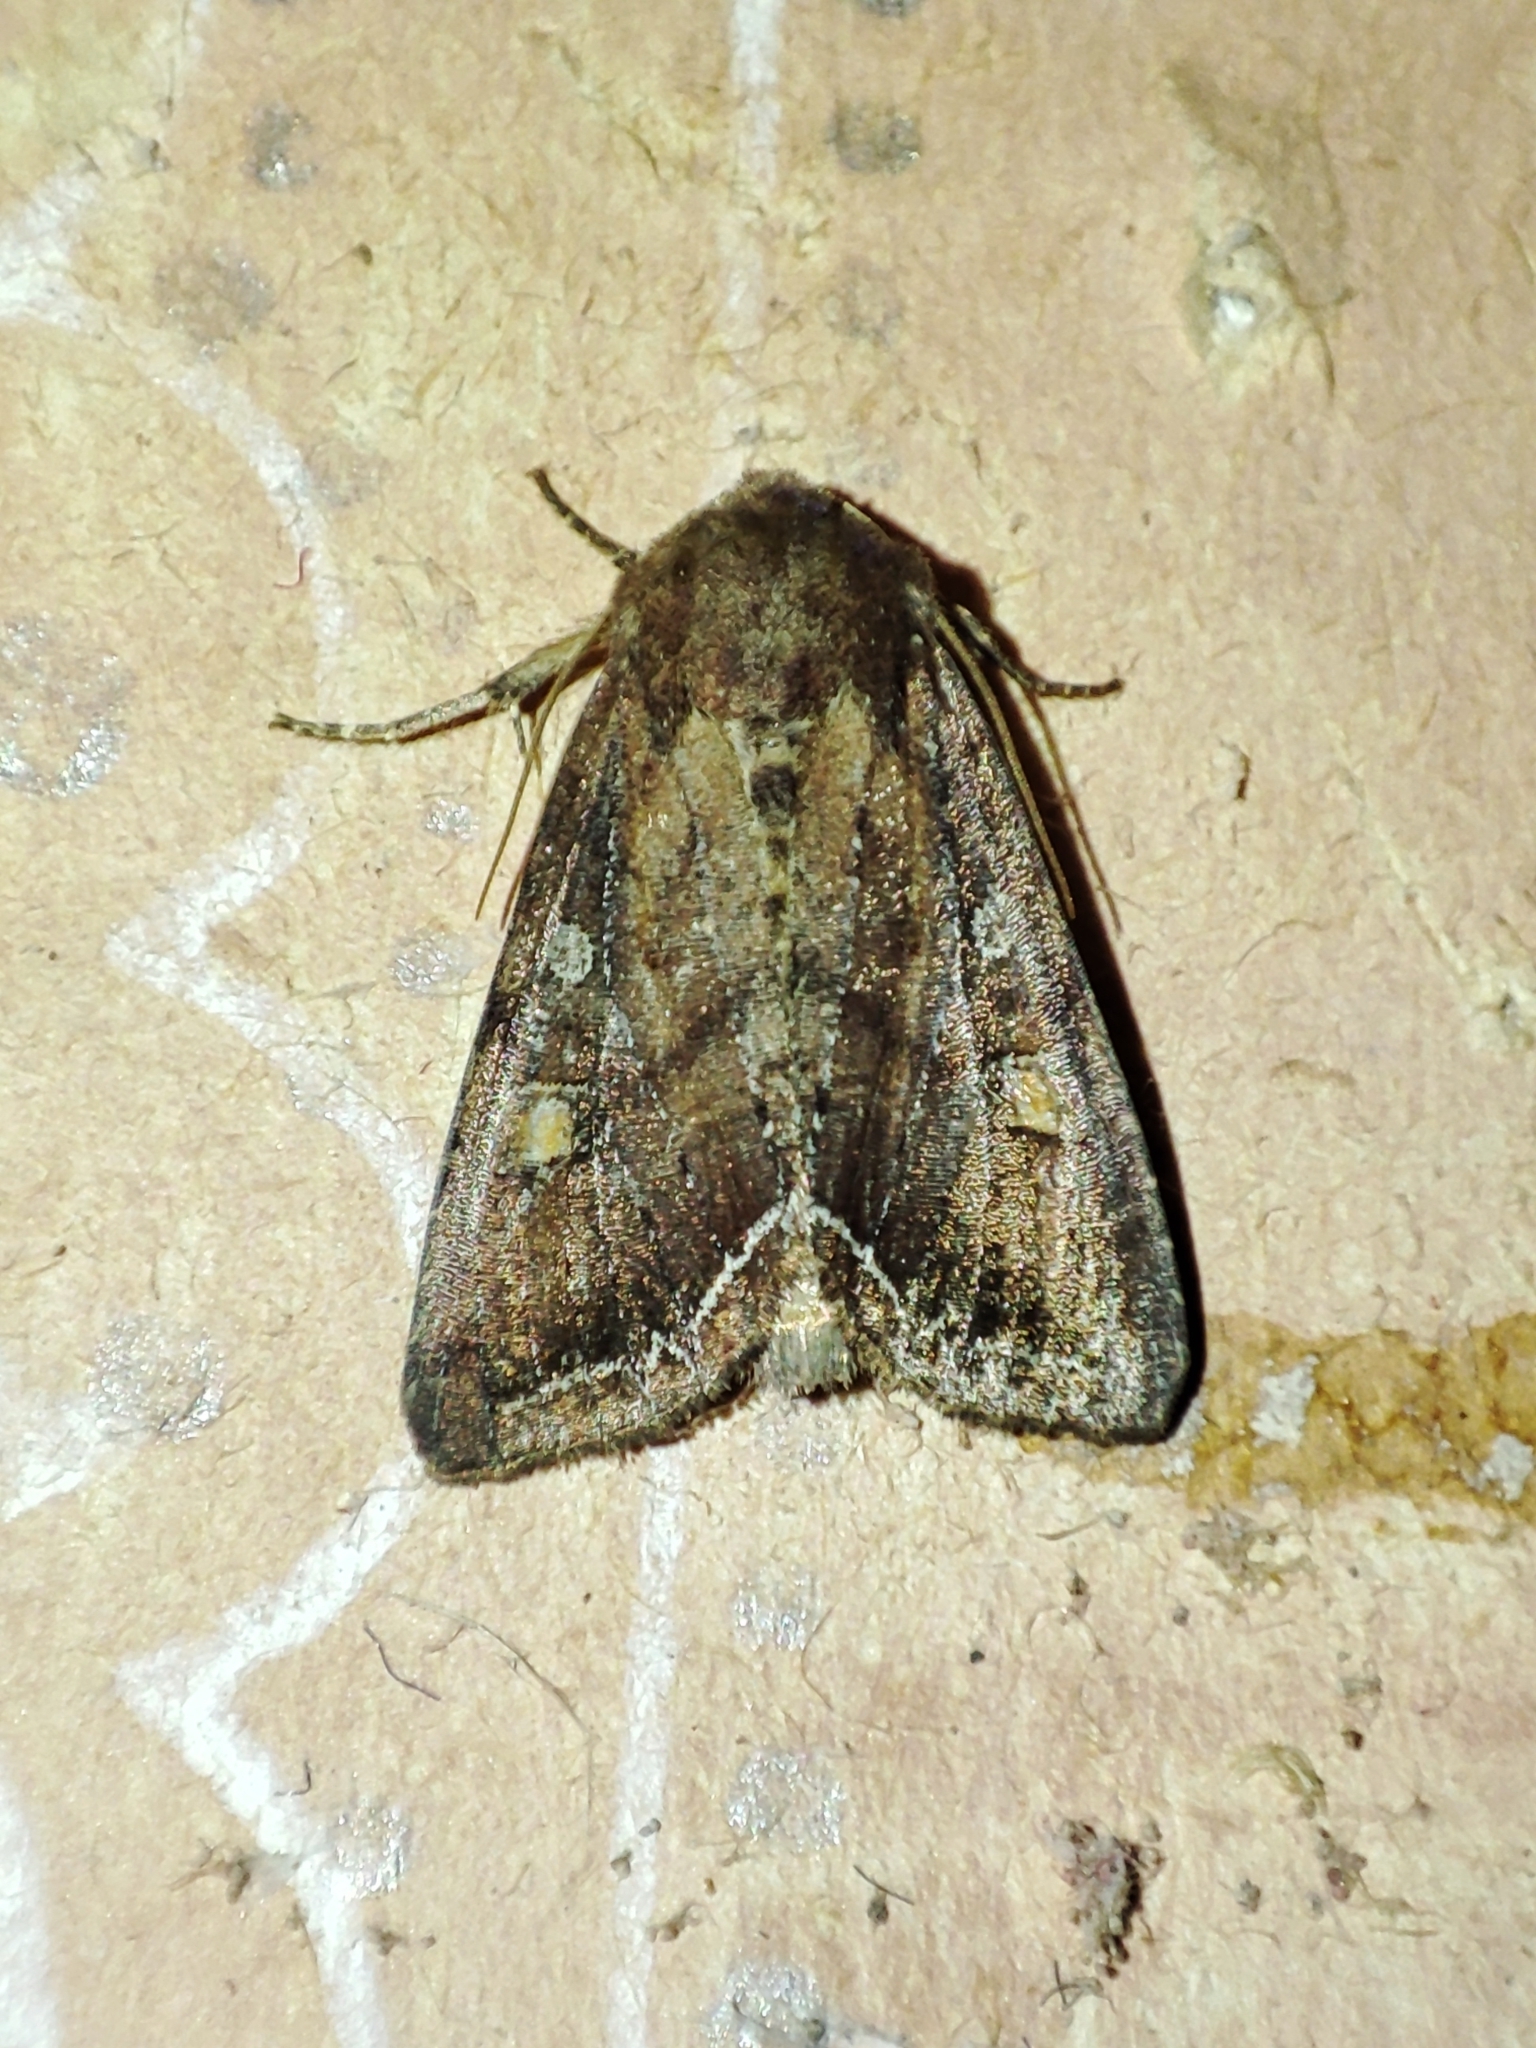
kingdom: Animalia
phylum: Arthropoda
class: Insecta
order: Lepidoptera
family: Noctuidae
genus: Lacanobia
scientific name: Lacanobia oleracea
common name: Bright-line brown-eye
